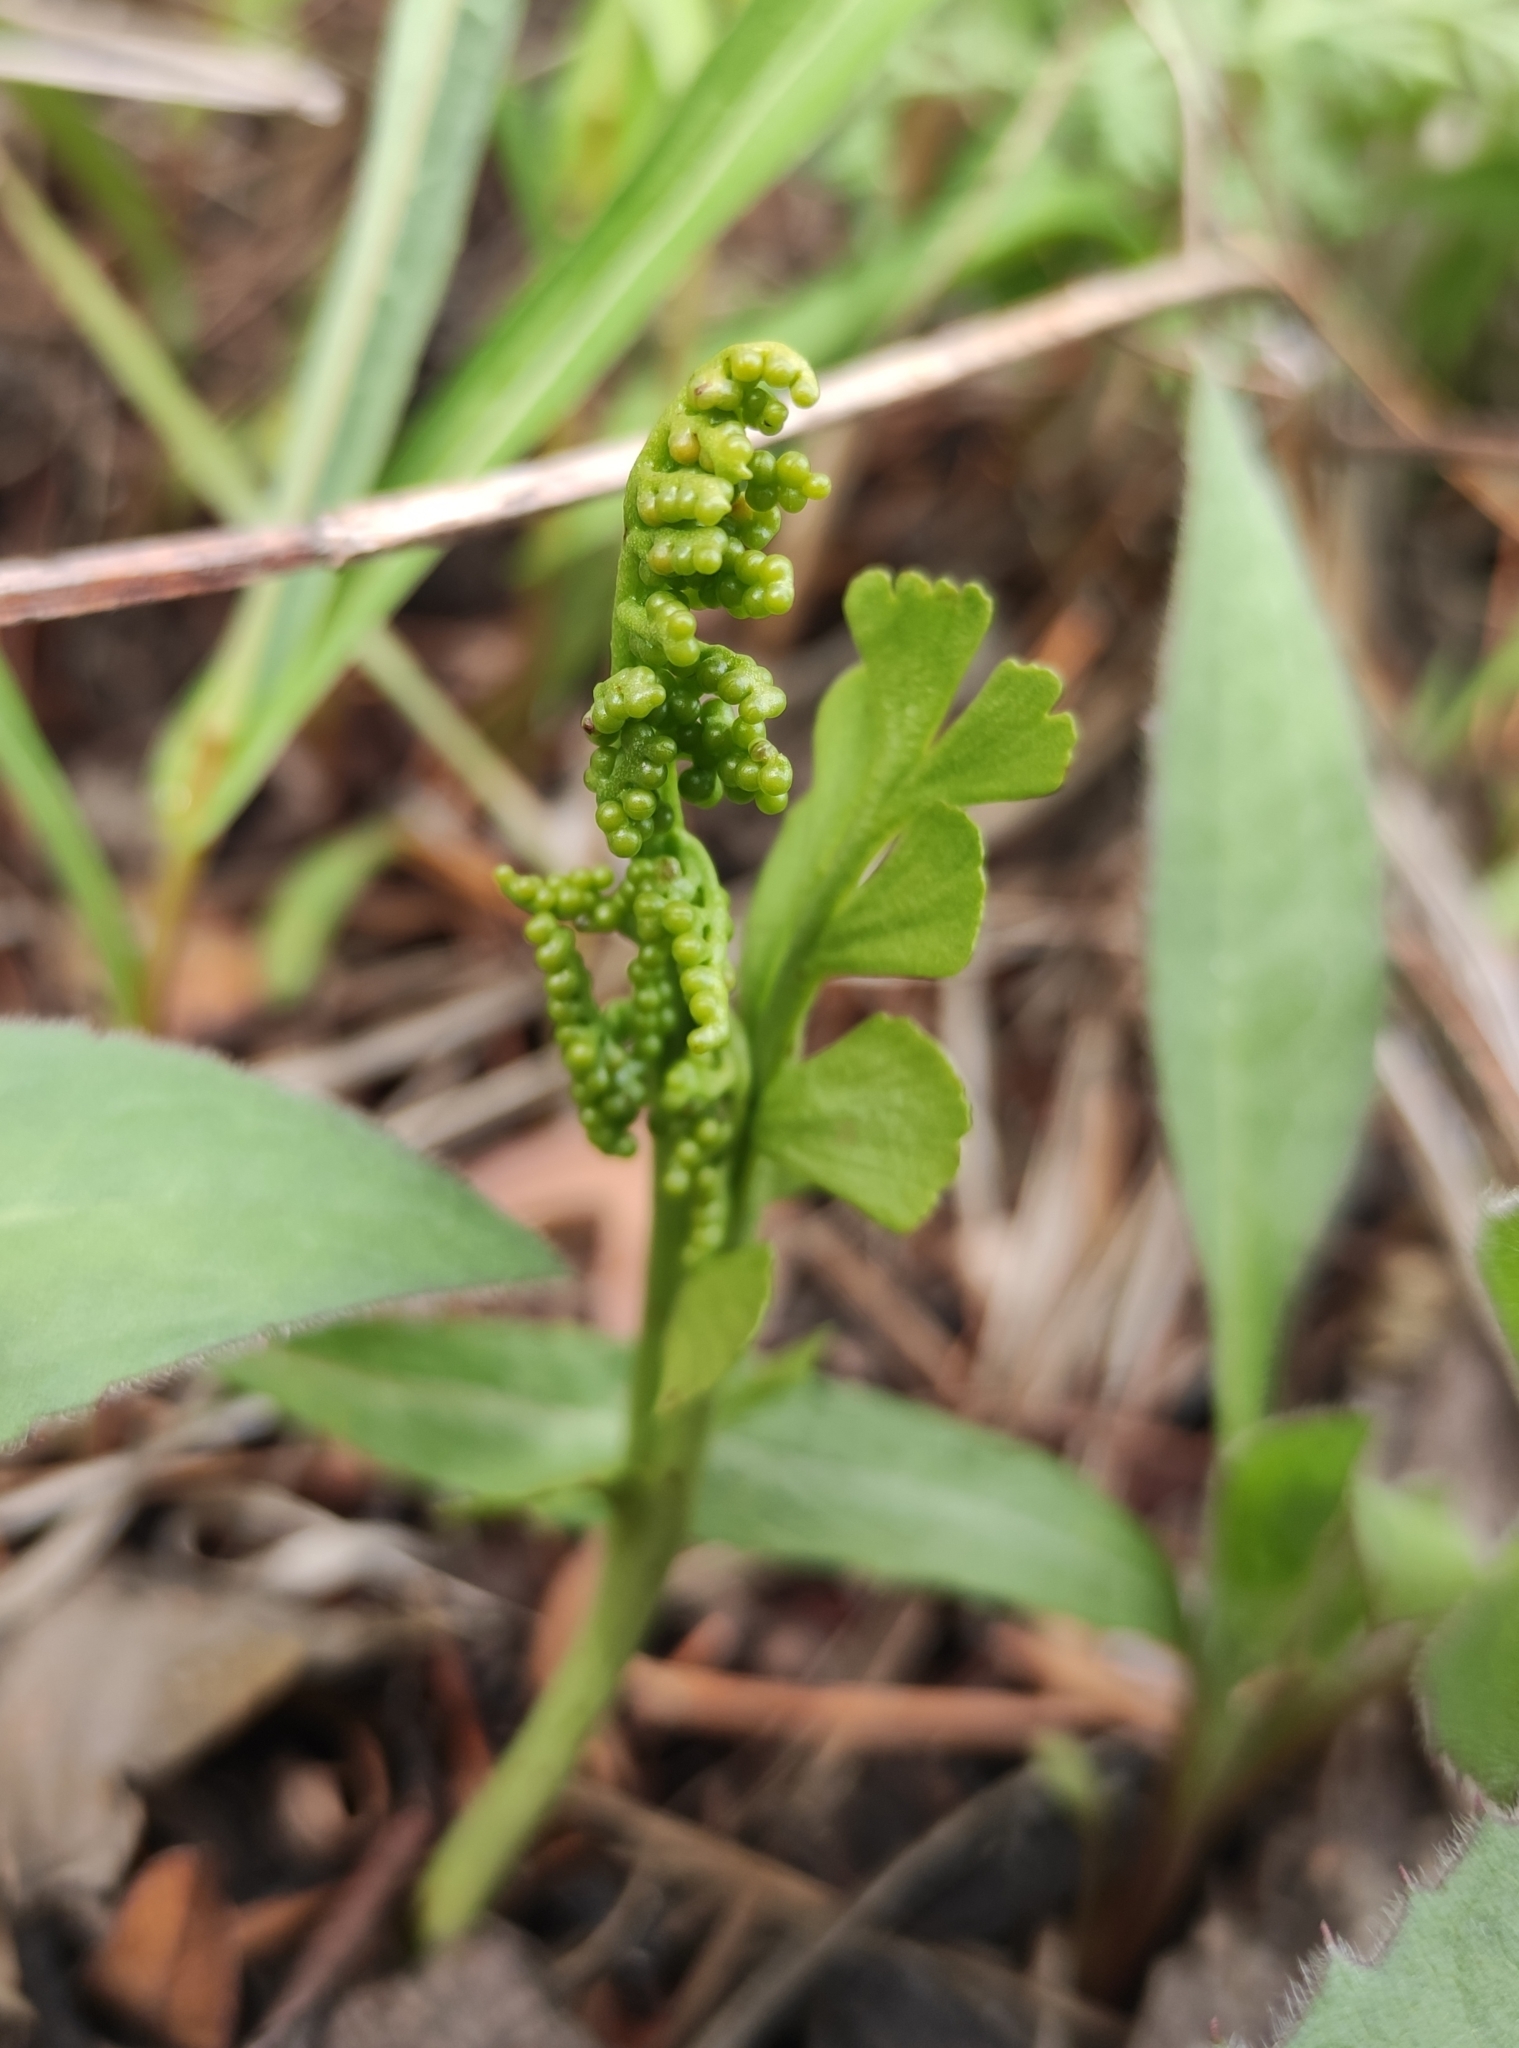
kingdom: Plantae
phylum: Tracheophyta
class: Polypodiopsida
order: Ophioglossales
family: Ophioglossaceae
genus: Botrychium
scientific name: Botrychium lunaria
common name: Moonwort
